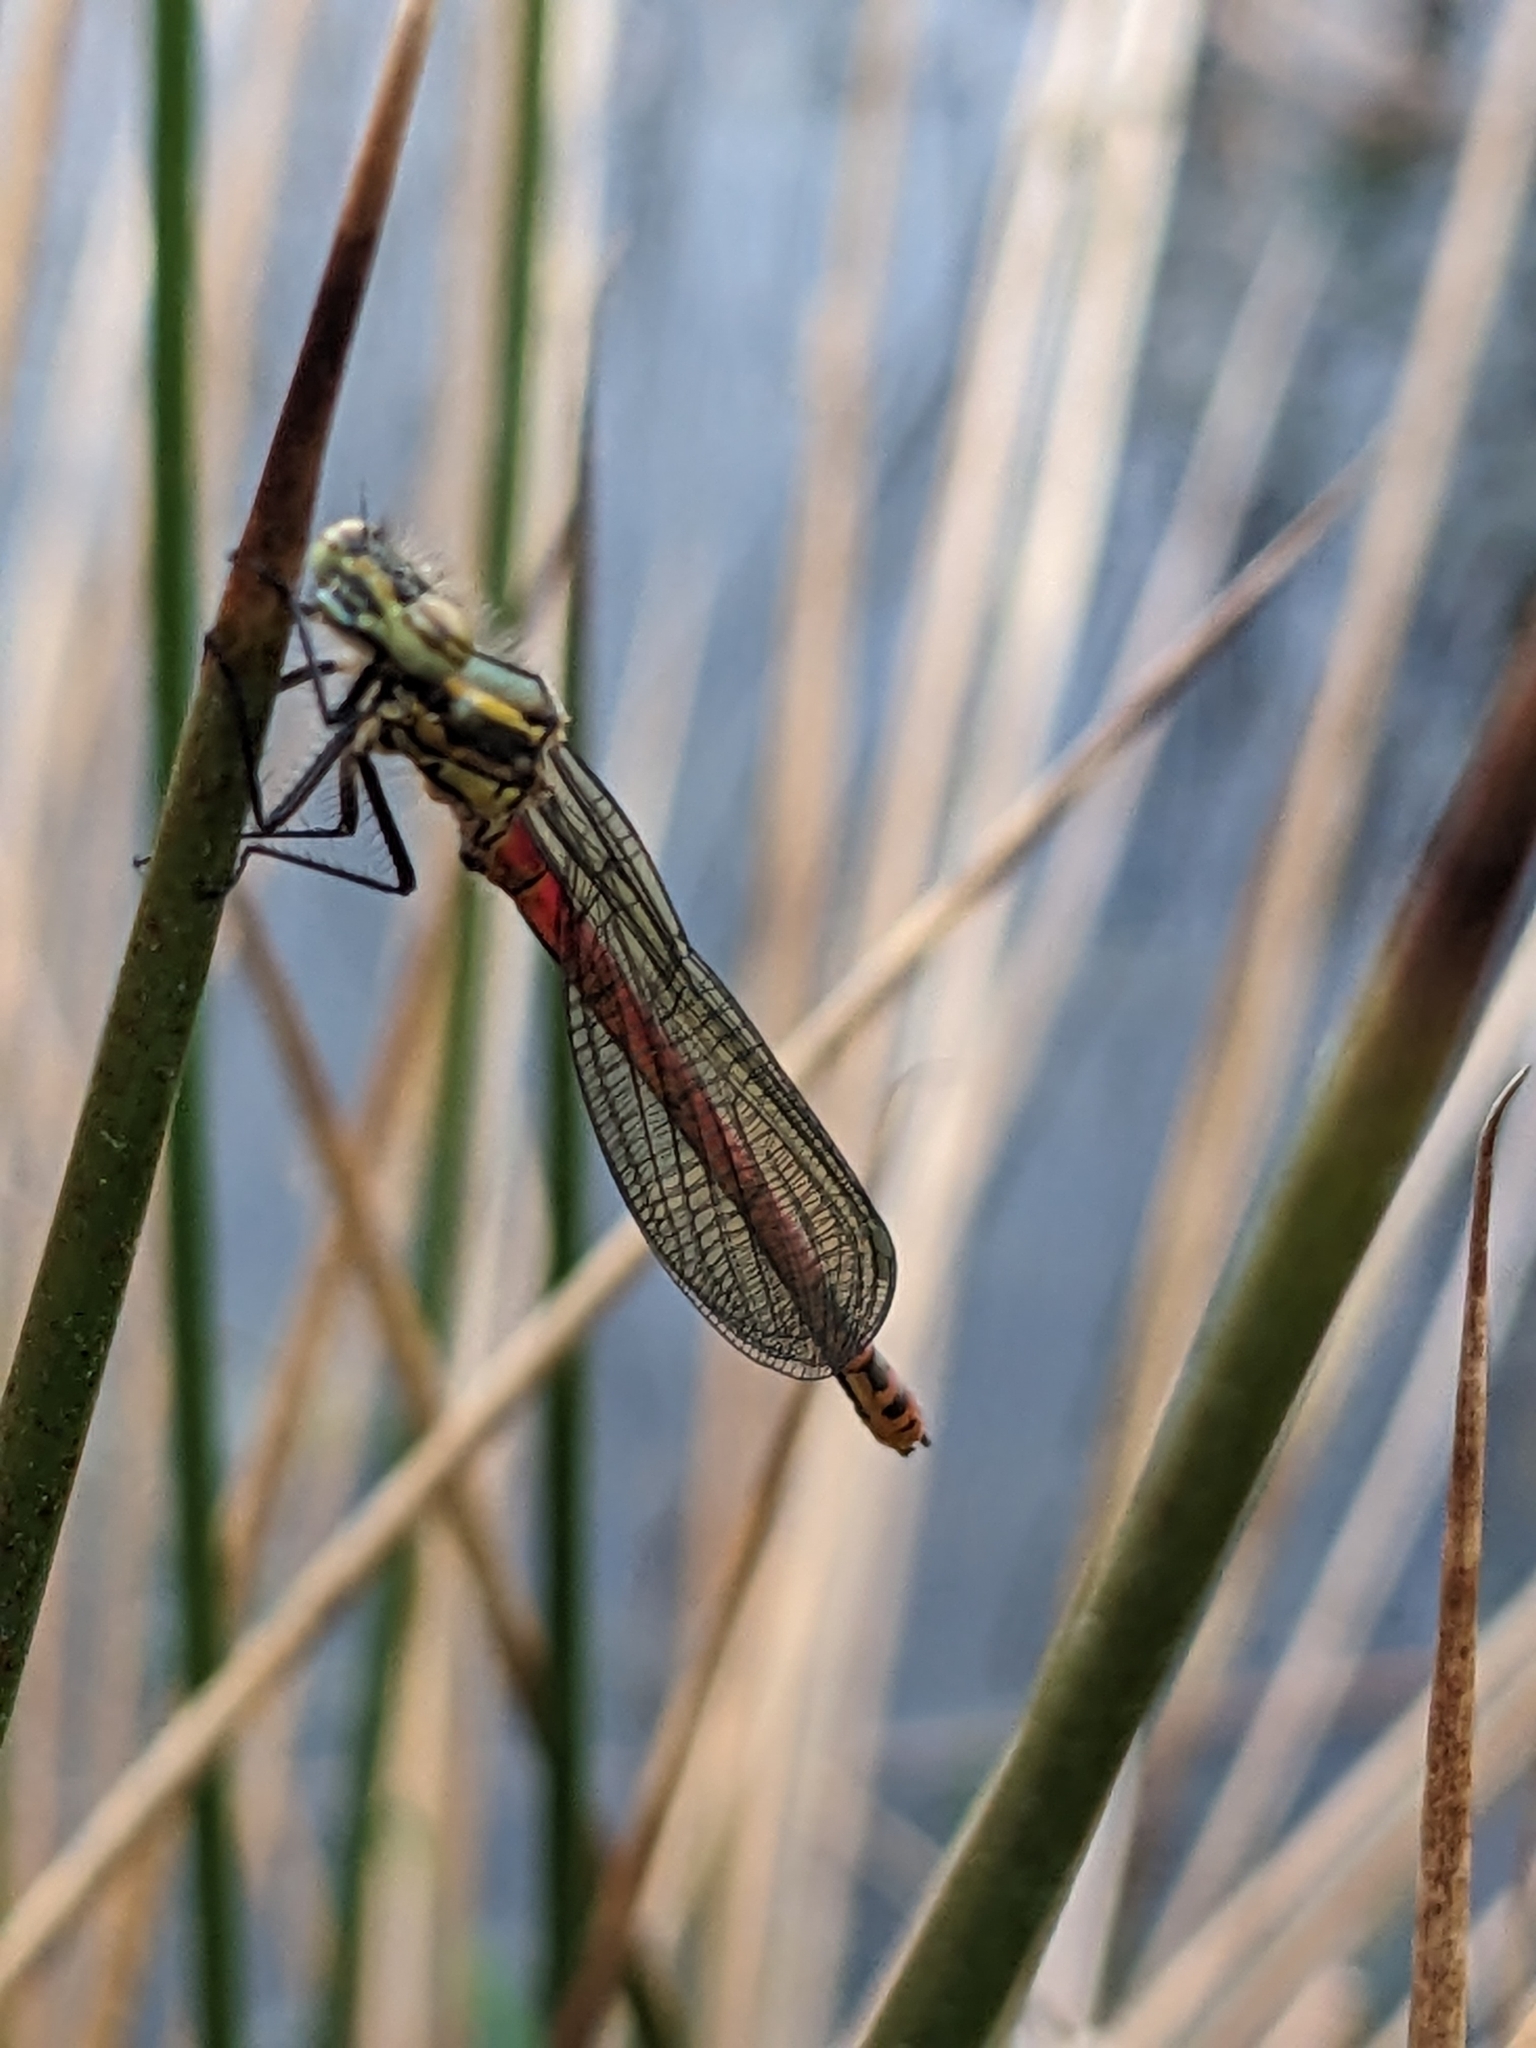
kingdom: Animalia
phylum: Arthropoda
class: Insecta
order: Odonata
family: Coenagrionidae
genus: Pyrrhosoma
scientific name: Pyrrhosoma nymphula
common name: Large red damsel
